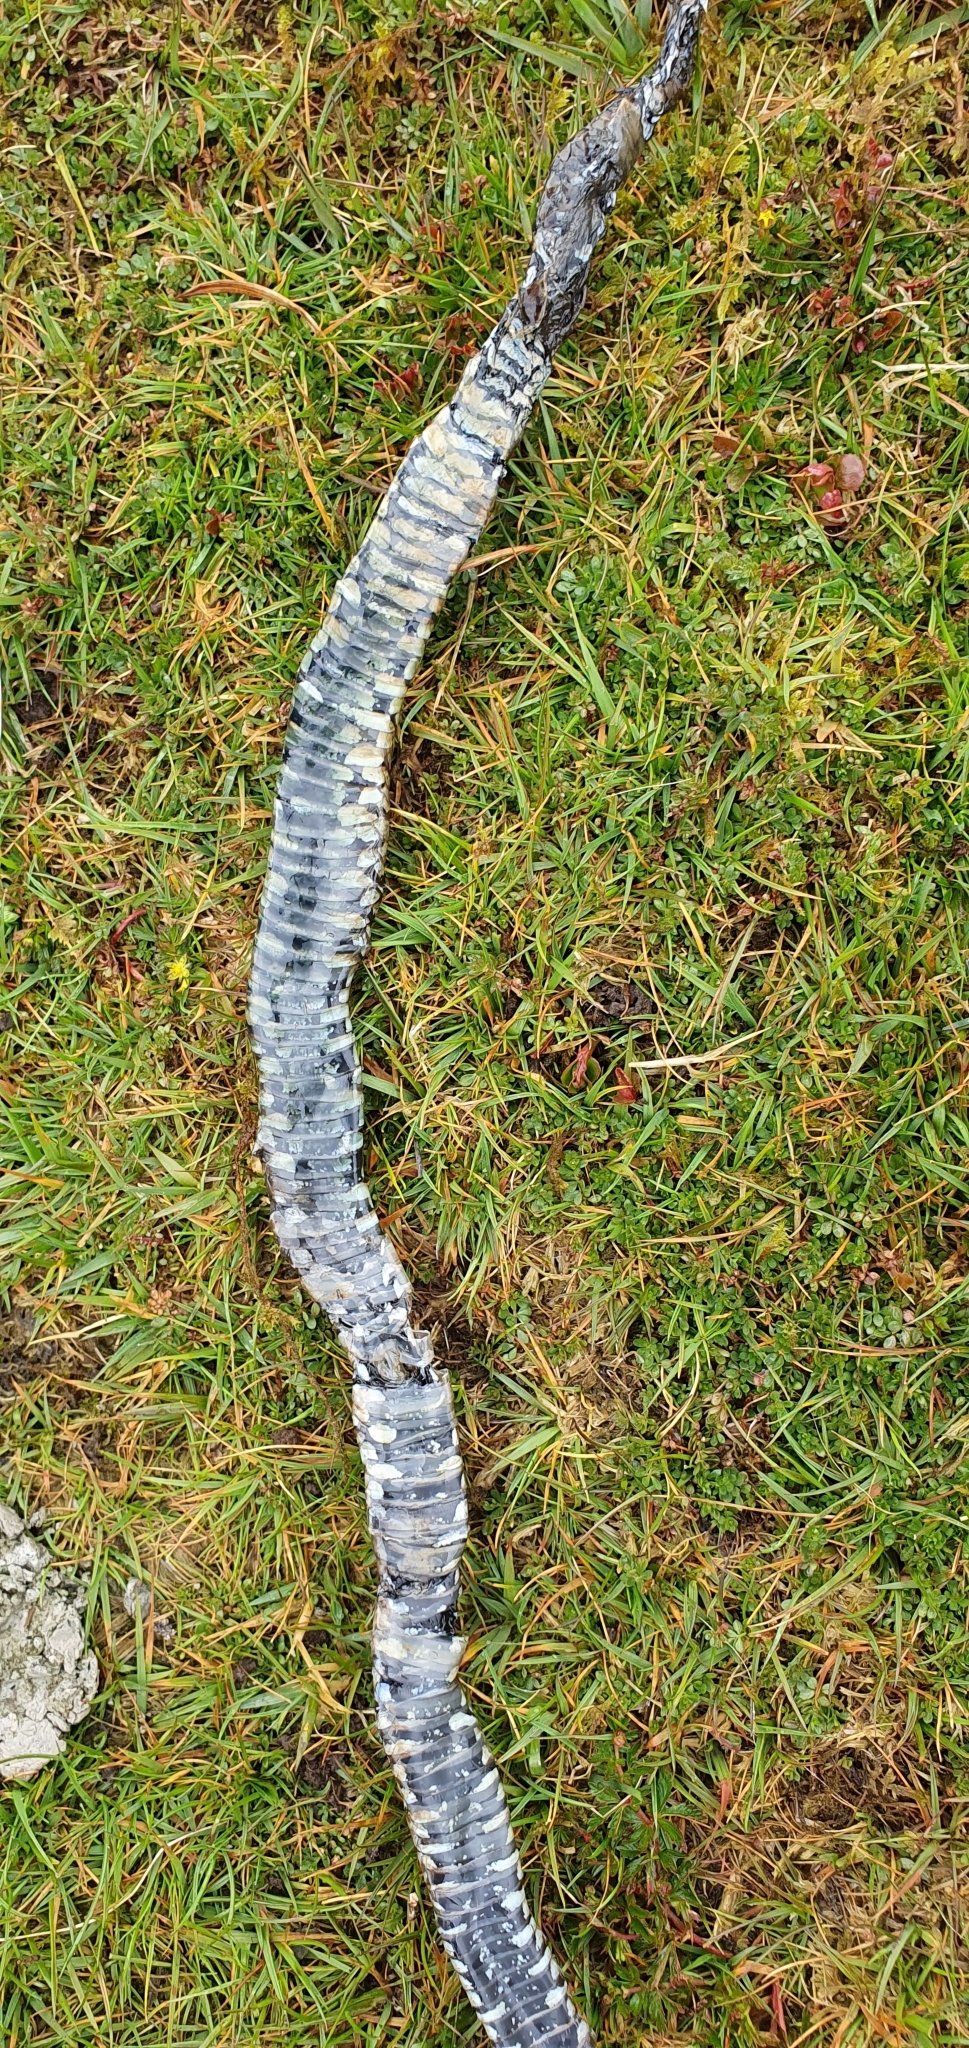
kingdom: Animalia
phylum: Chordata
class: Squamata
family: Colubridae
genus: Natrix
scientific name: Natrix helvetica
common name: Banded grass snake
